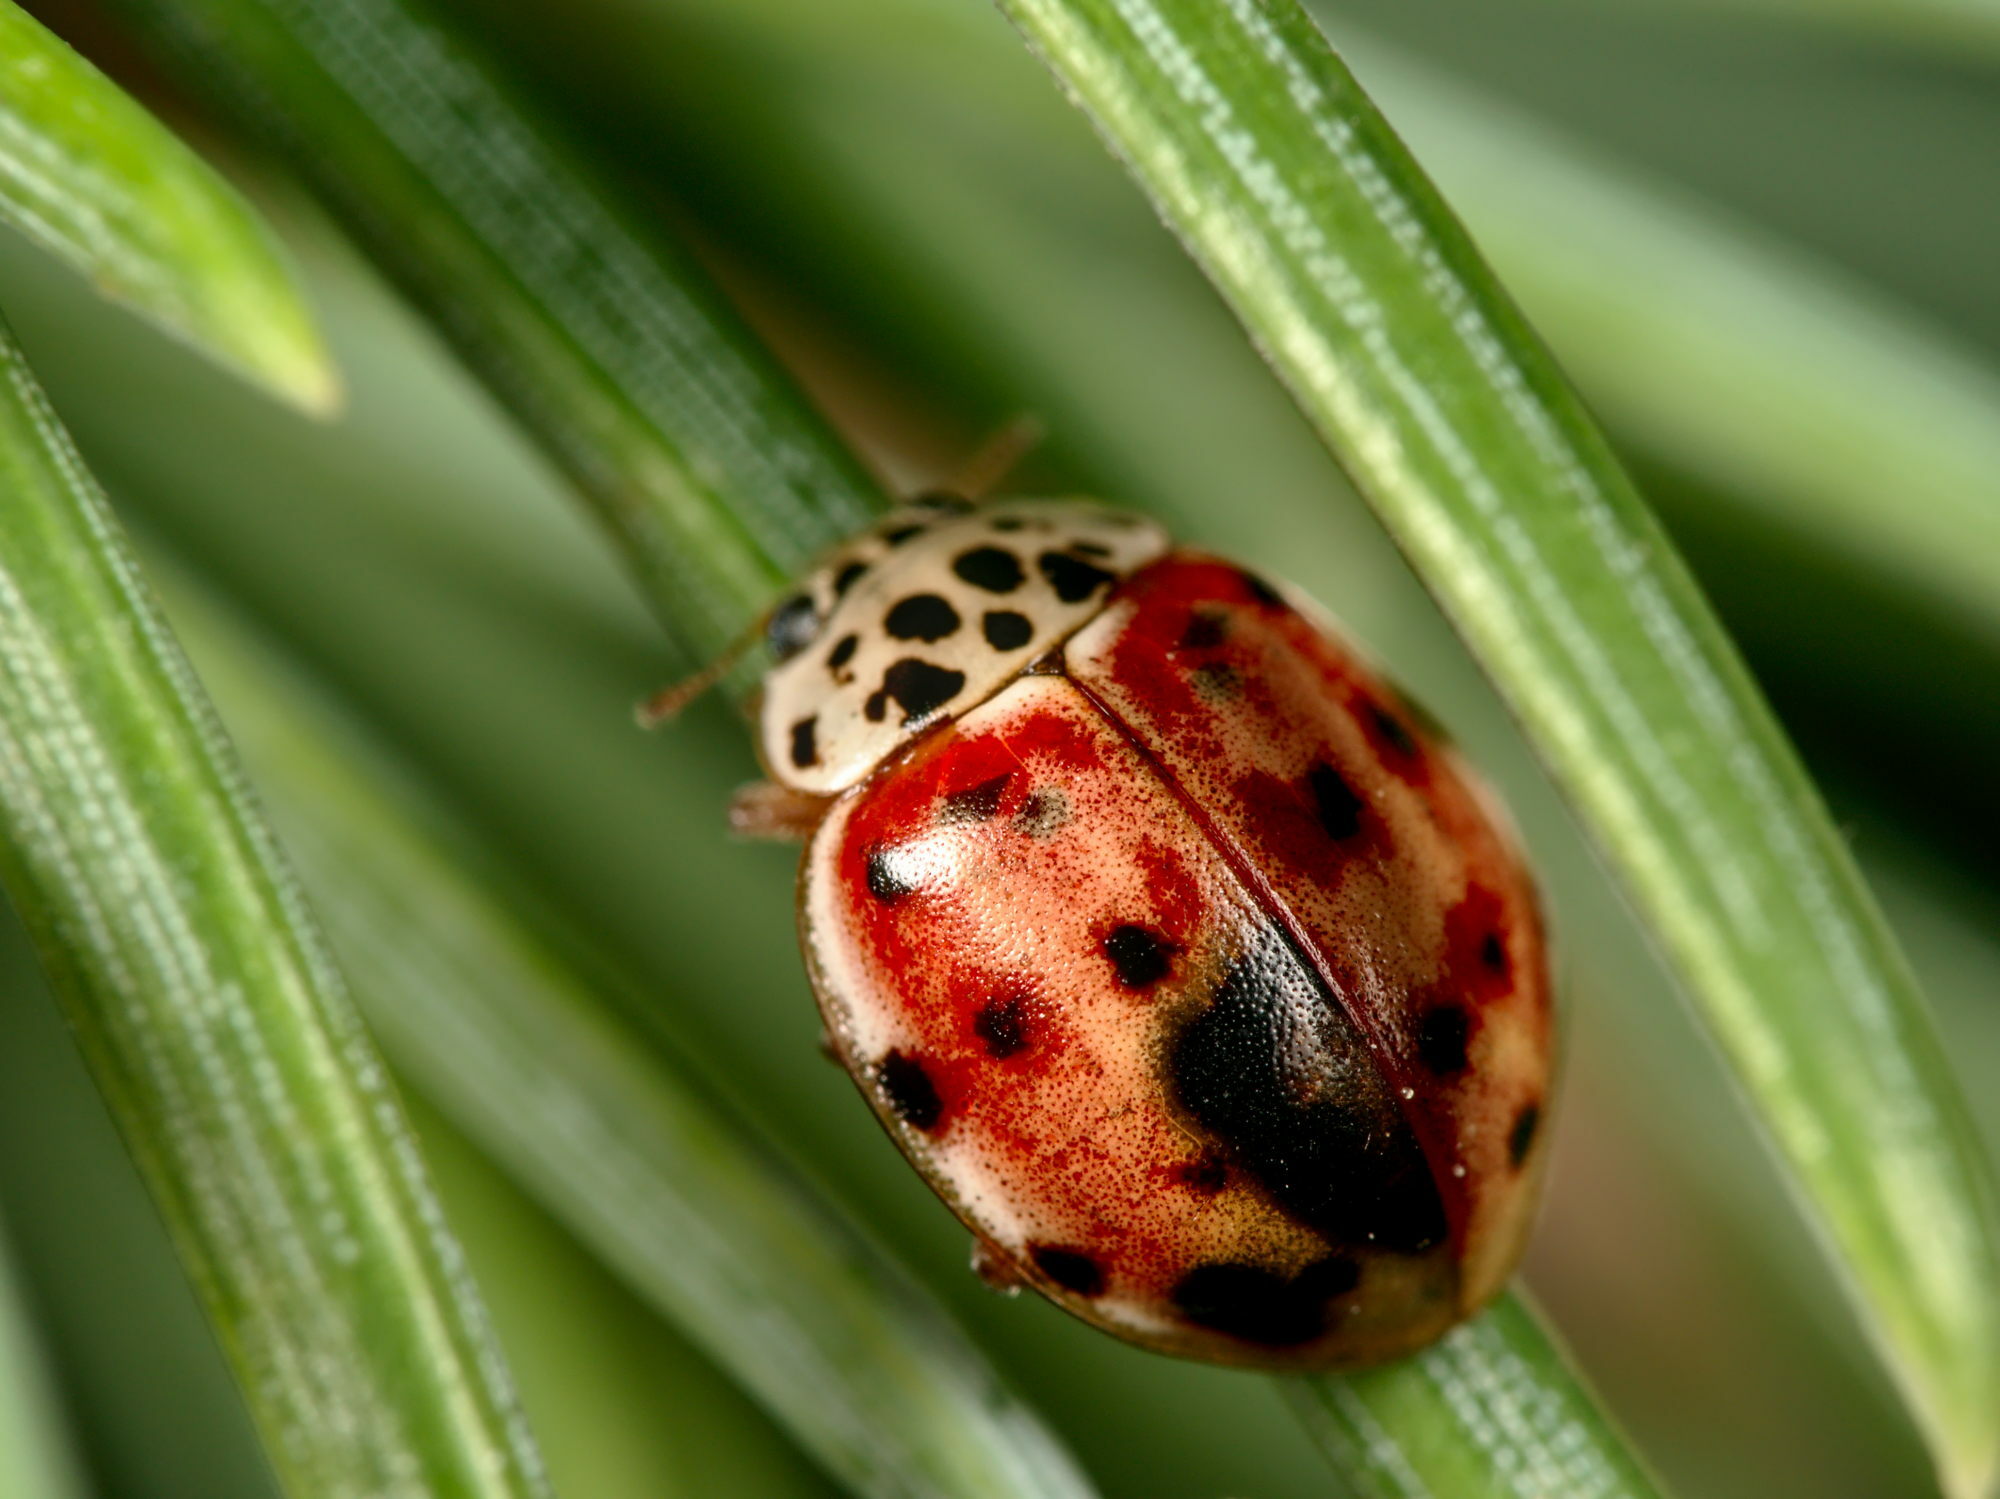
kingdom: Animalia
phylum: Arthropoda
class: Insecta
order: Coleoptera
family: Coccinellidae
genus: Harmonia
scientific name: Harmonia quadripunctata
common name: Cream-streaked ladybird
